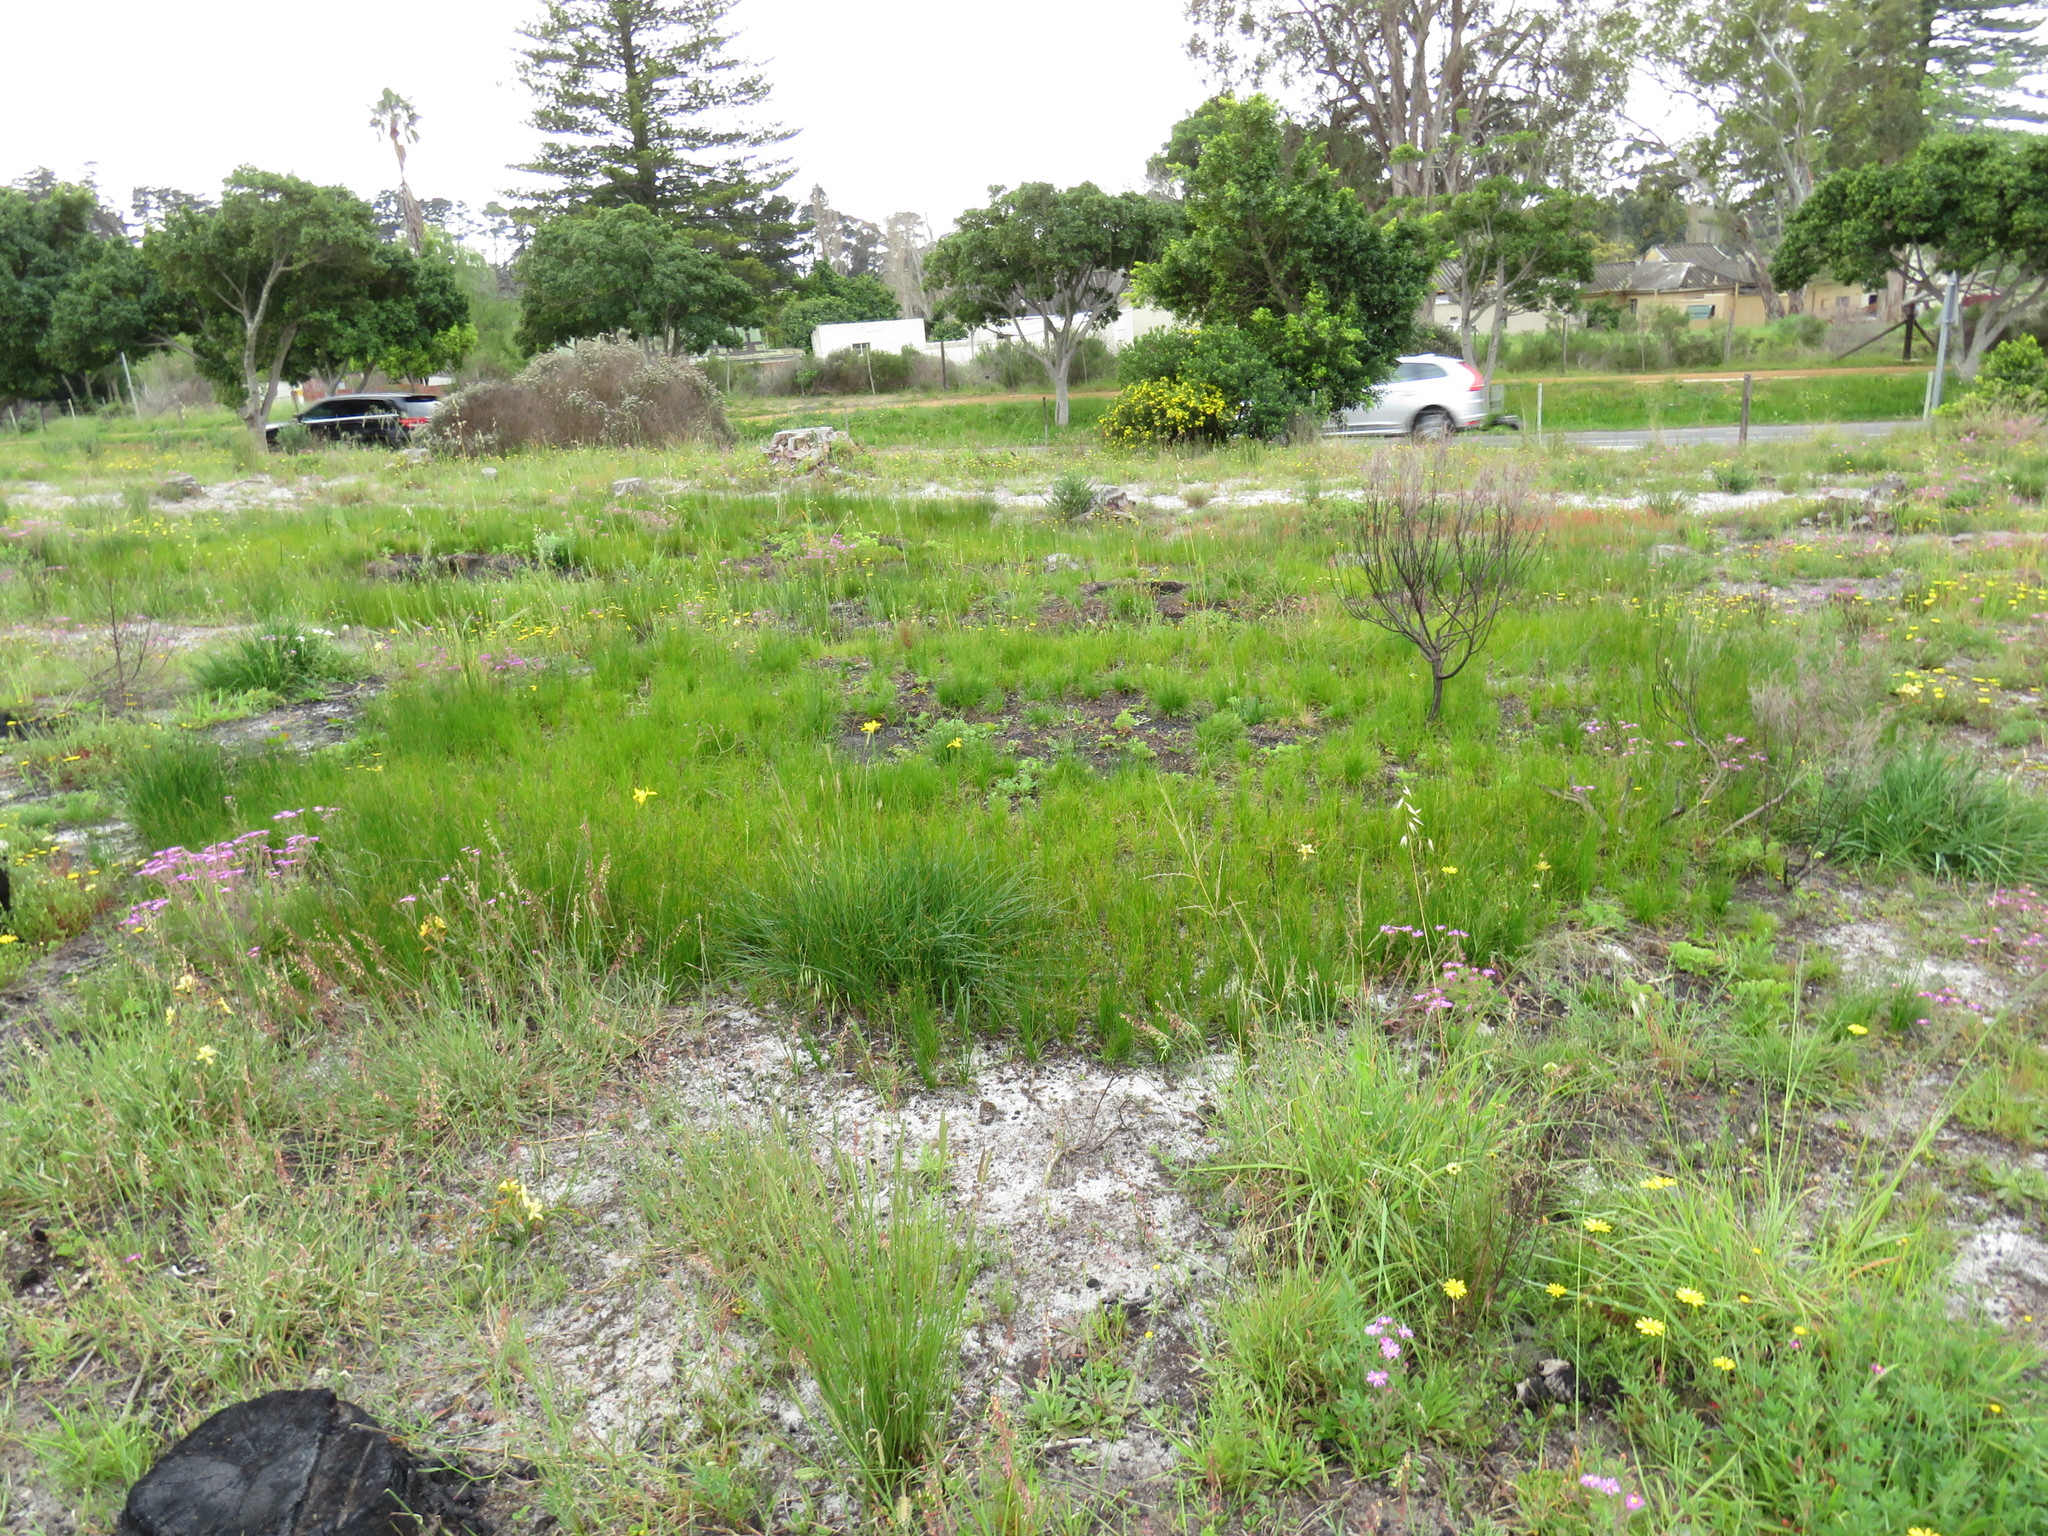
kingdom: Plantae
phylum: Tracheophyta
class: Liliopsida
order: Poales
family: Cyperaceae
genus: Ficinia
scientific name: Ficinia secunda
